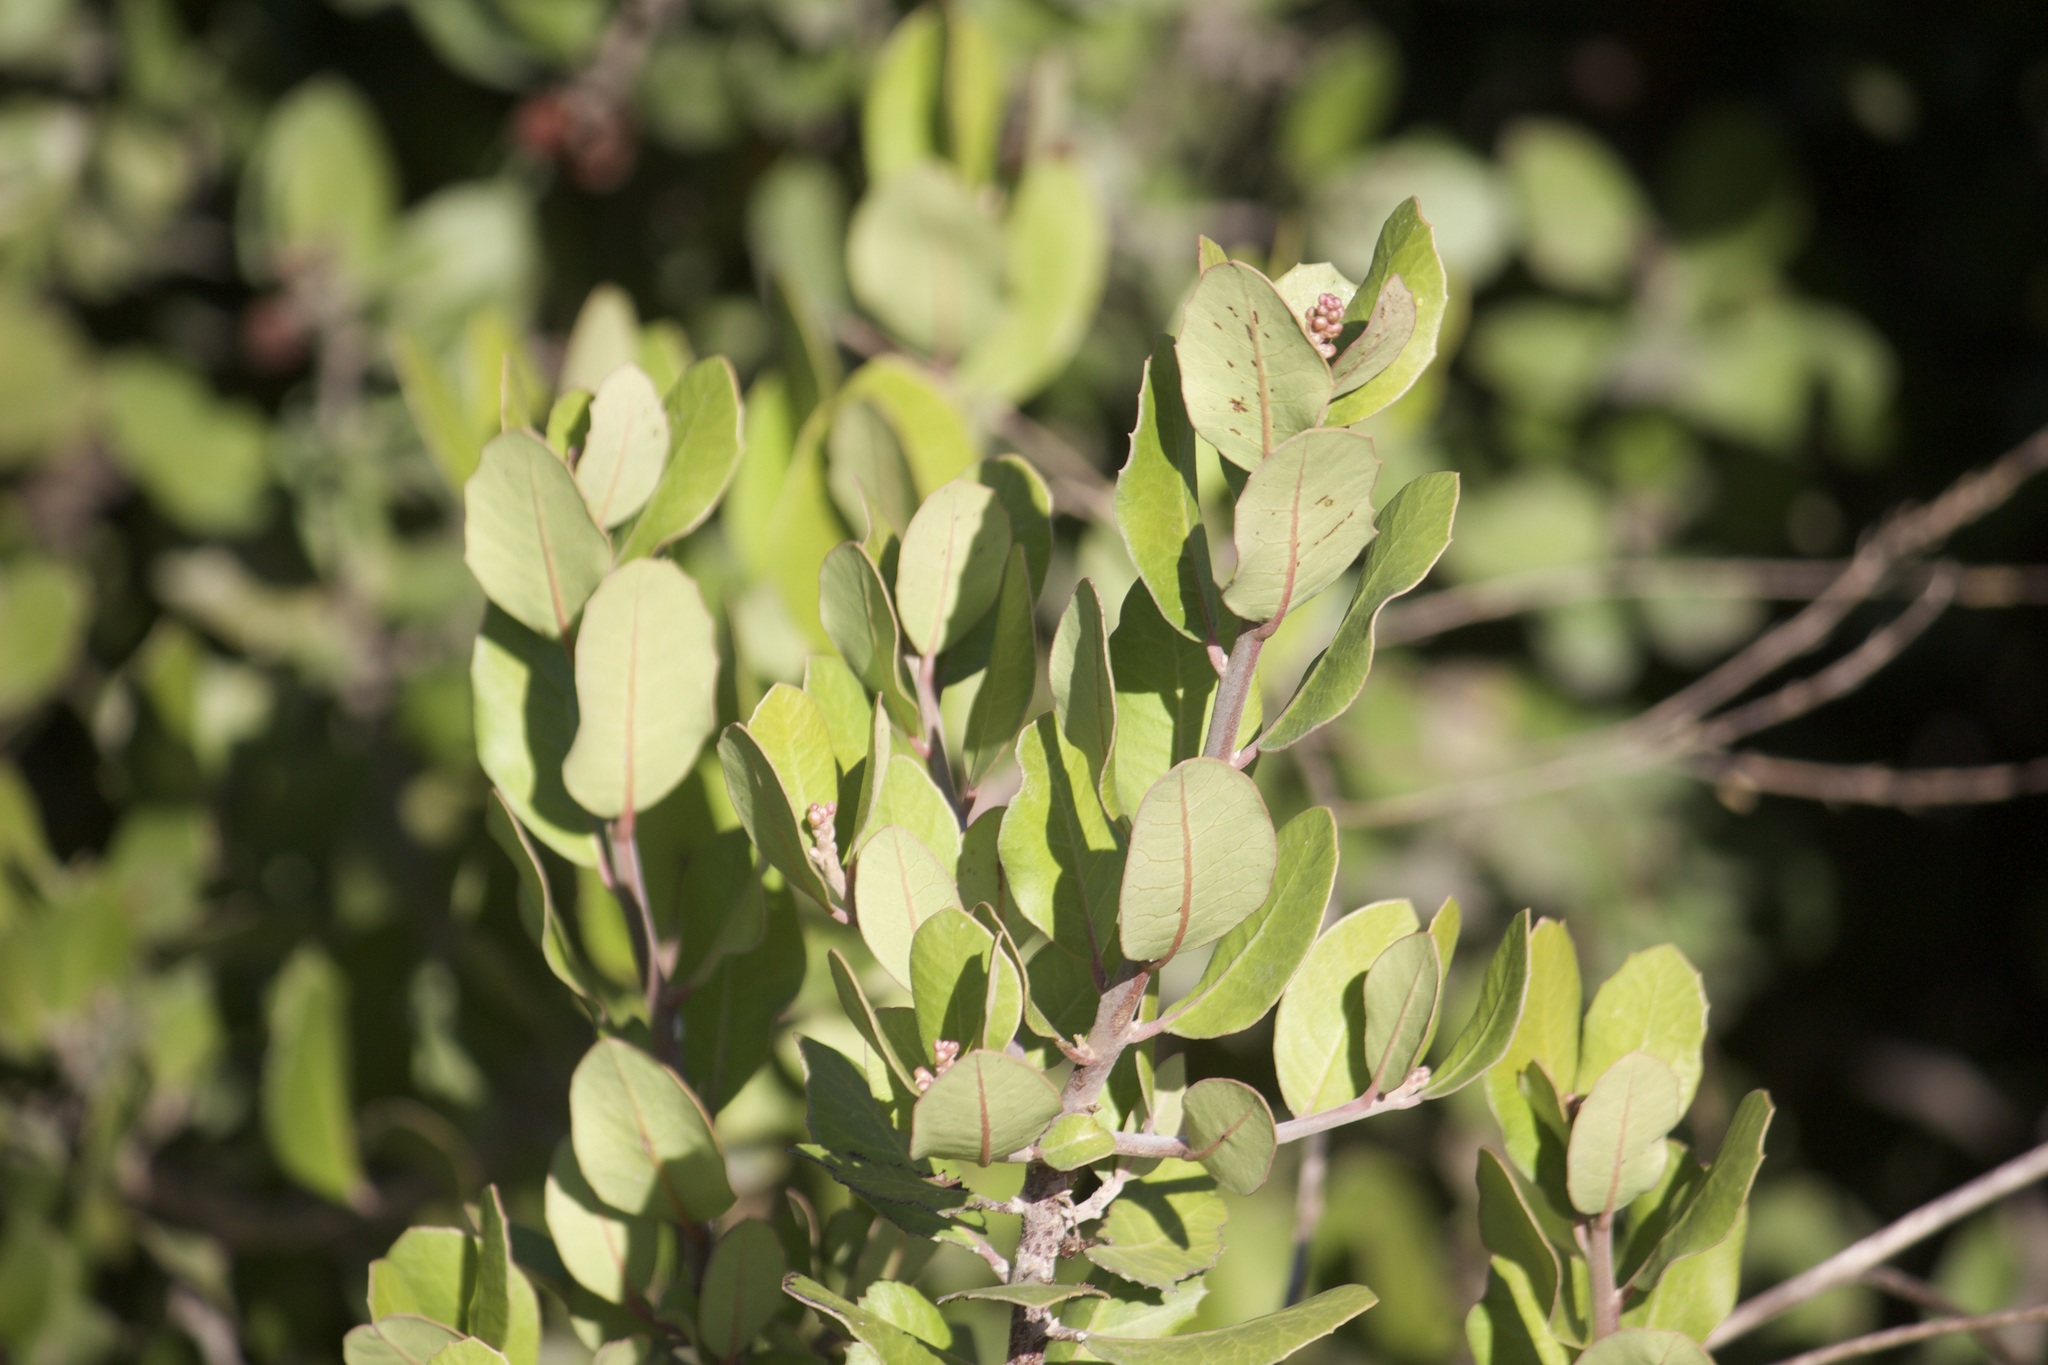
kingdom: Plantae
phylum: Tracheophyta
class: Magnoliopsida
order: Sapindales
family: Anacardiaceae
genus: Rhus
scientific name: Rhus integrifolia
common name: Lemonade sumac
